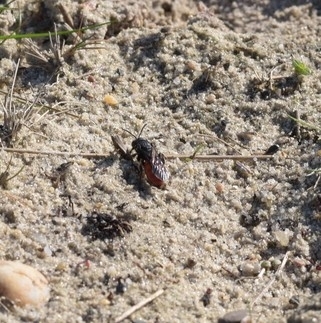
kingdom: Animalia
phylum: Arthropoda
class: Insecta
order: Hymenoptera
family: Halictidae
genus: Sphecodes
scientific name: Sphecodes albilabris
